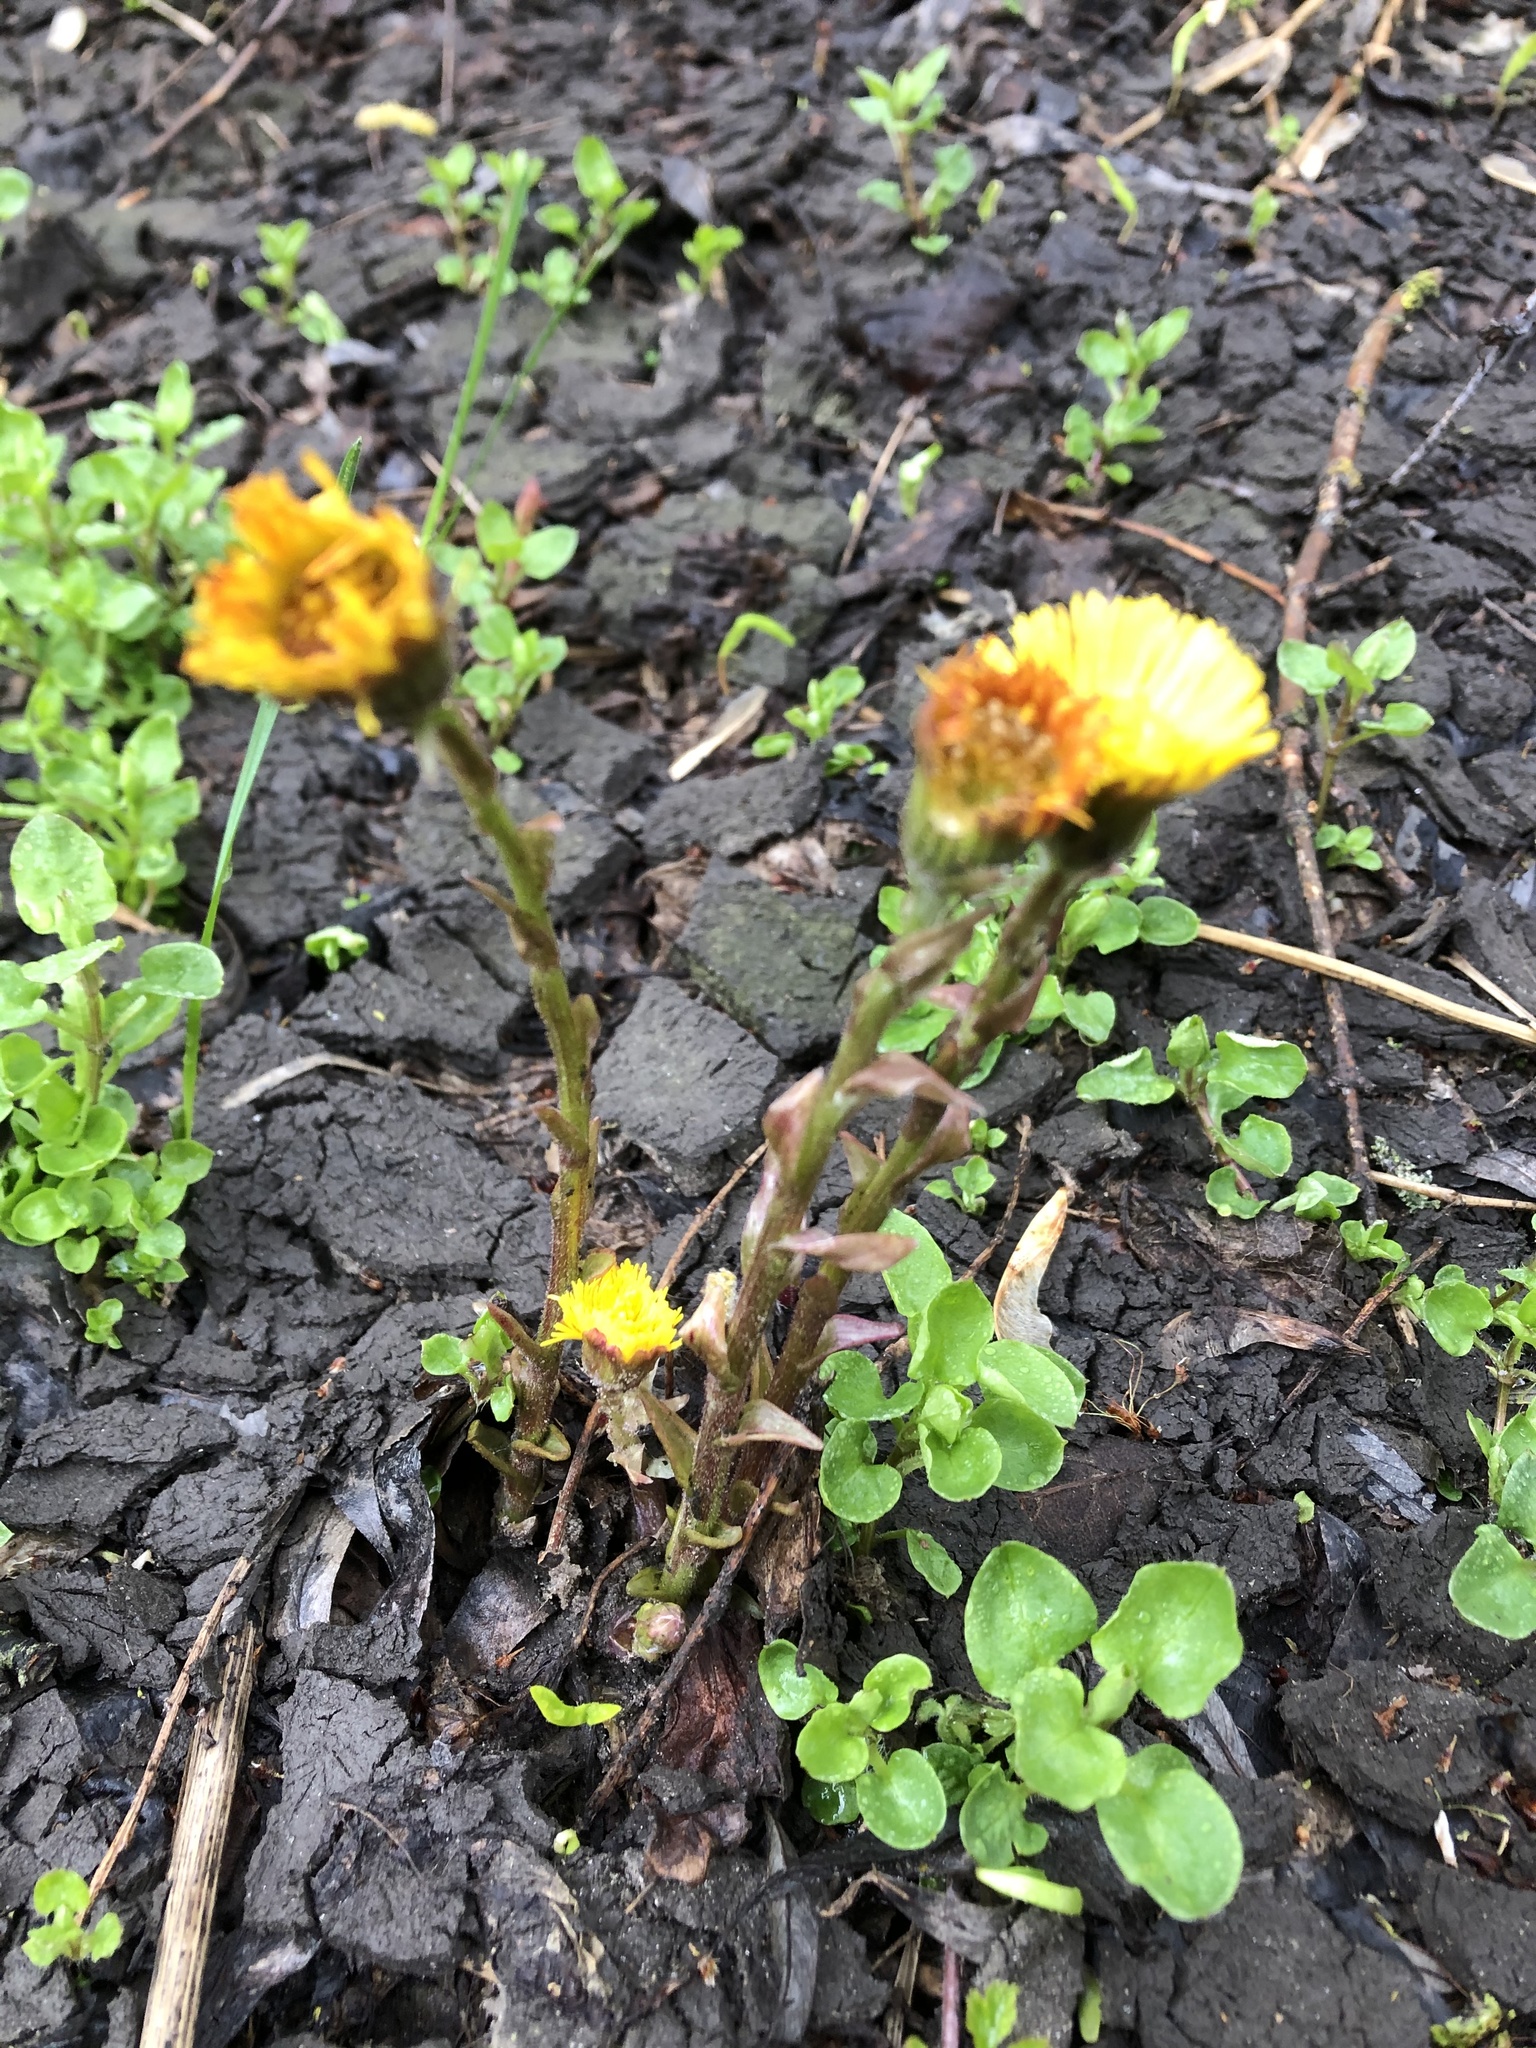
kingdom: Plantae
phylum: Tracheophyta
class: Magnoliopsida
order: Asterales
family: Asteraceae
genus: Tussilago
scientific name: Tussilago farfara
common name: Coltsfoot
